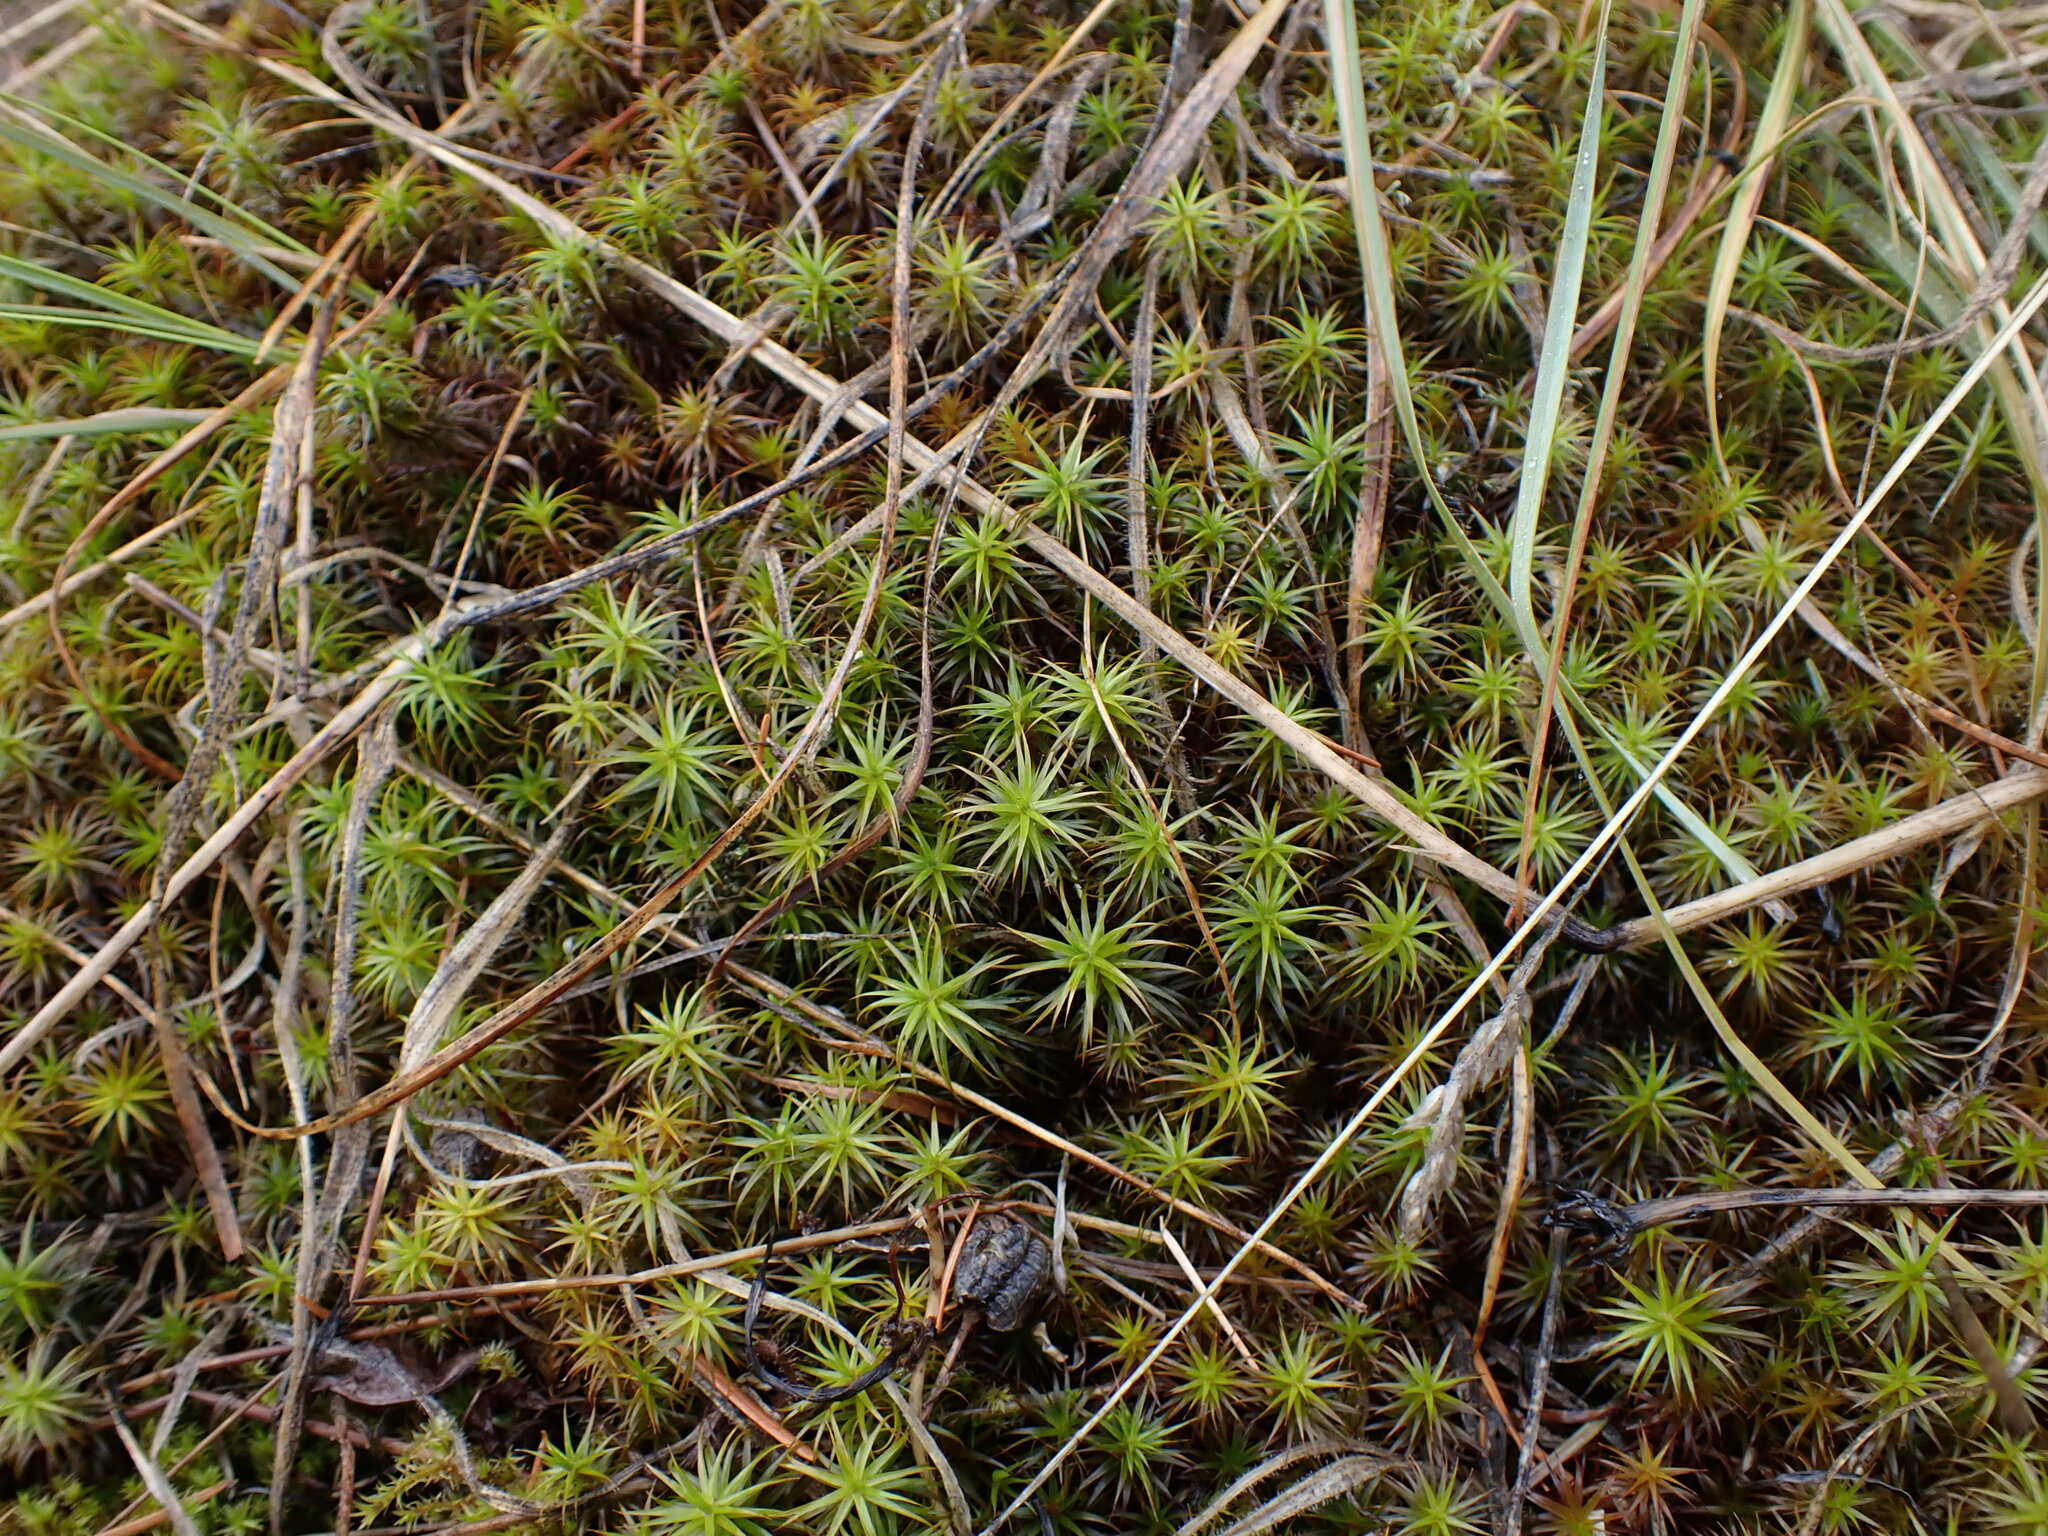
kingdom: Plantae
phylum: Bryophyta
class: Polytrichopsida
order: Polytrichales
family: Polytrichaceae
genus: Polytrichum
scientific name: Polytrichum commune
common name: Common haircap
